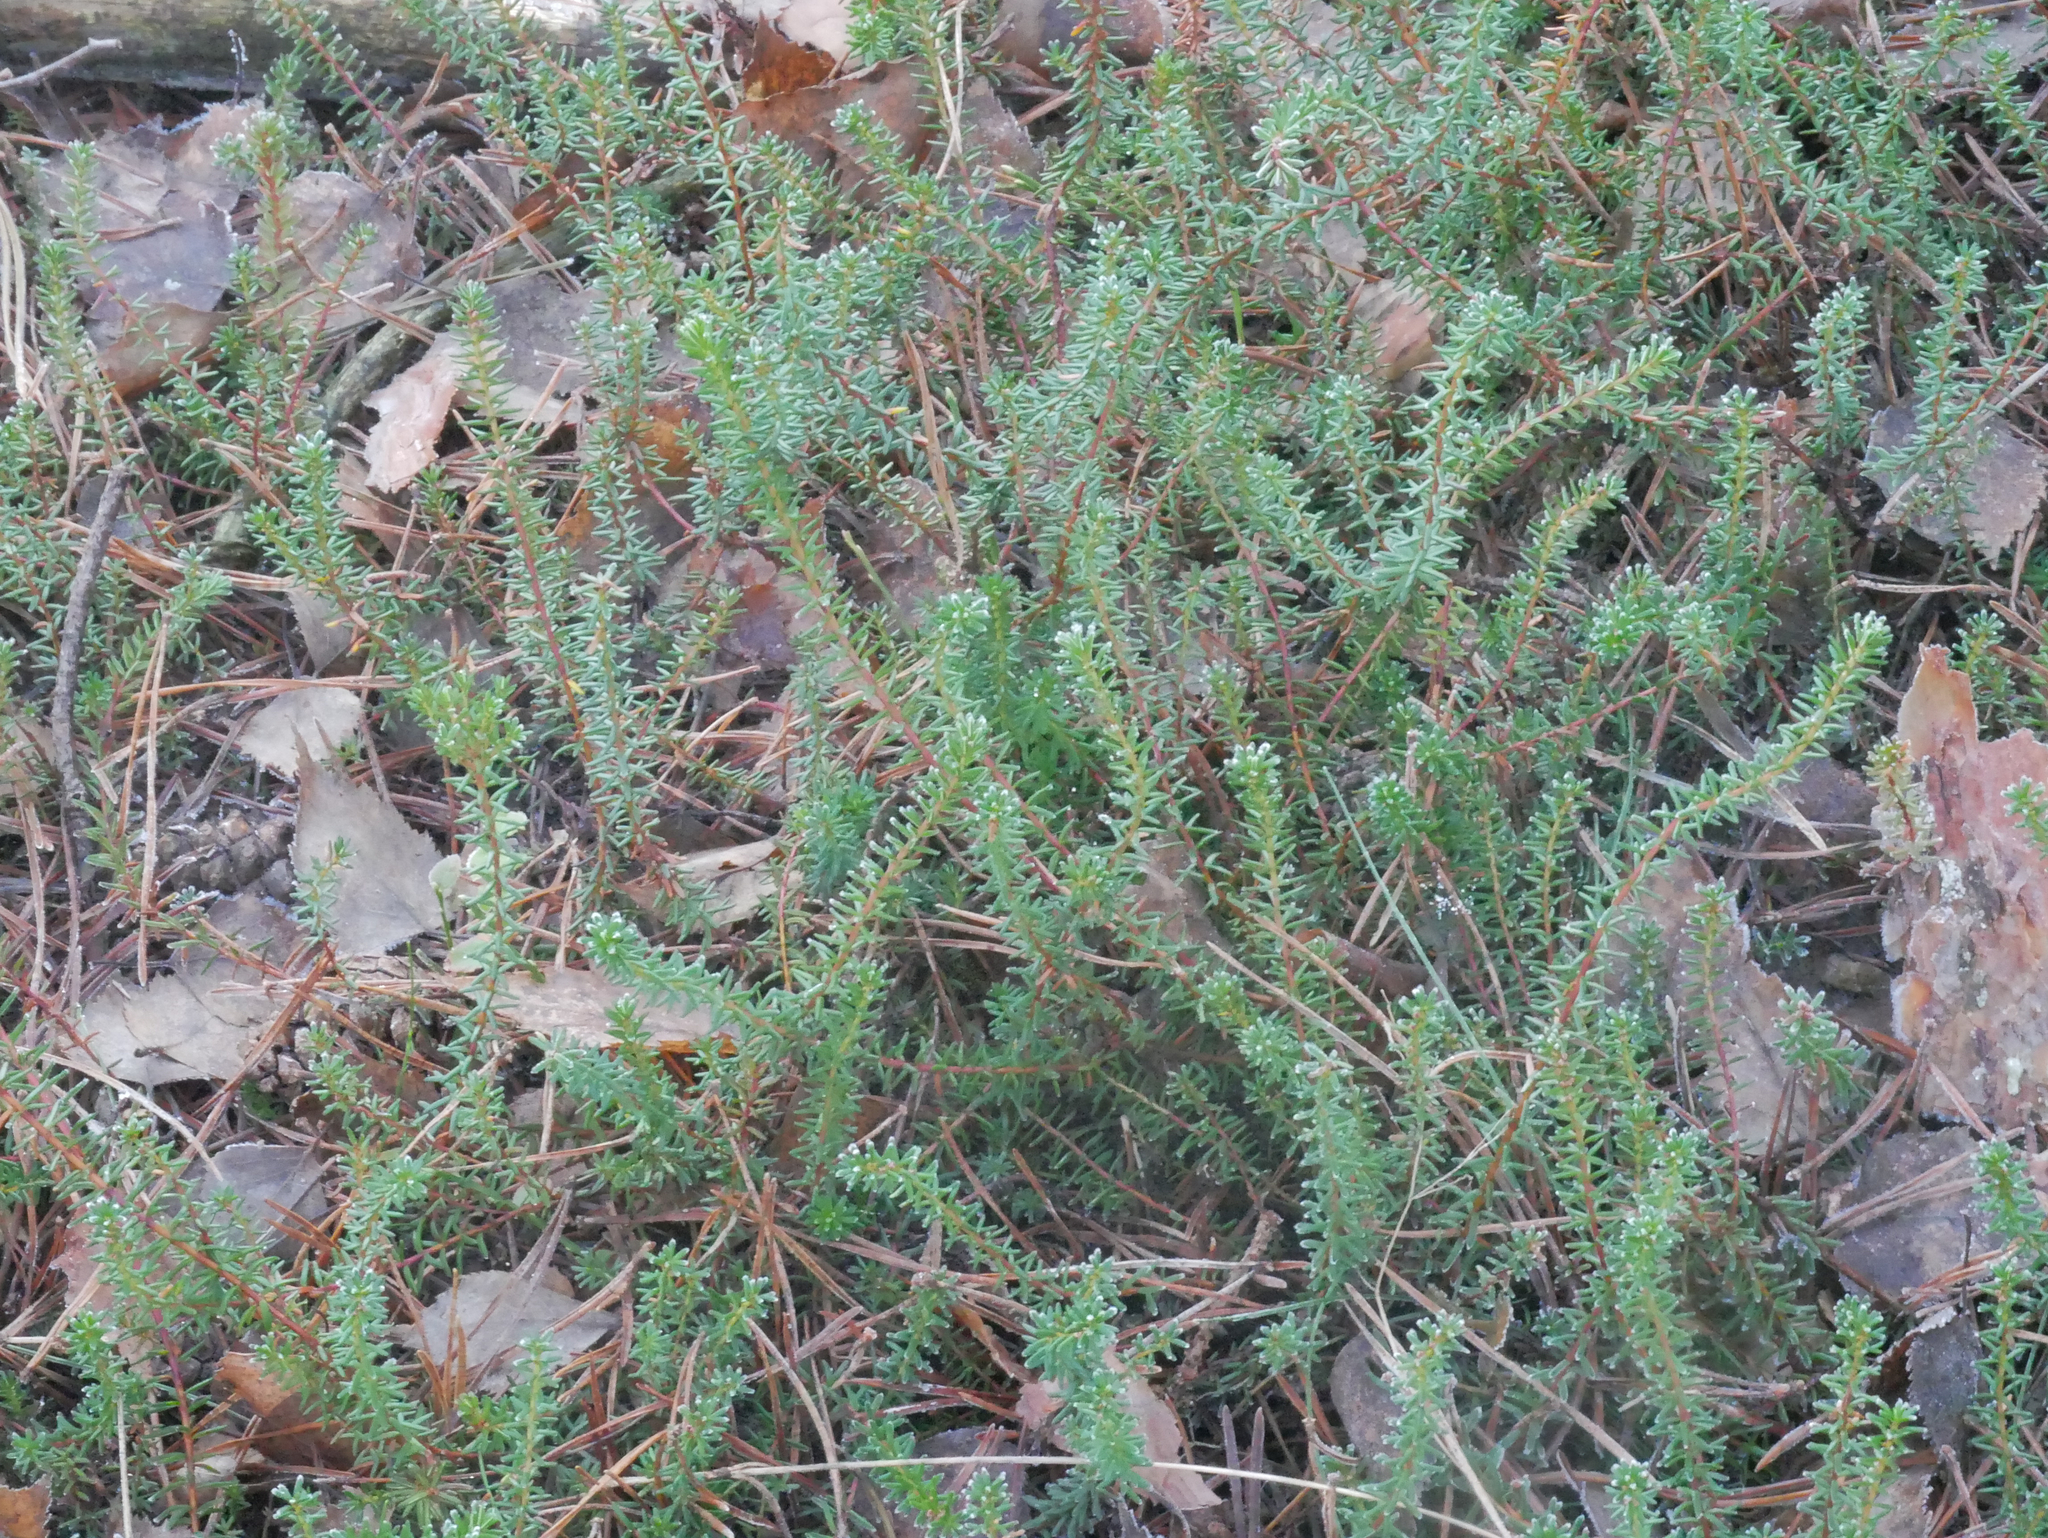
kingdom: Plantae
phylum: Tracheophyta
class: Magnoliopsida
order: Ericales
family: Ericaceae
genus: Empetrum
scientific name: Empetrum nigrum
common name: Black crowberry
